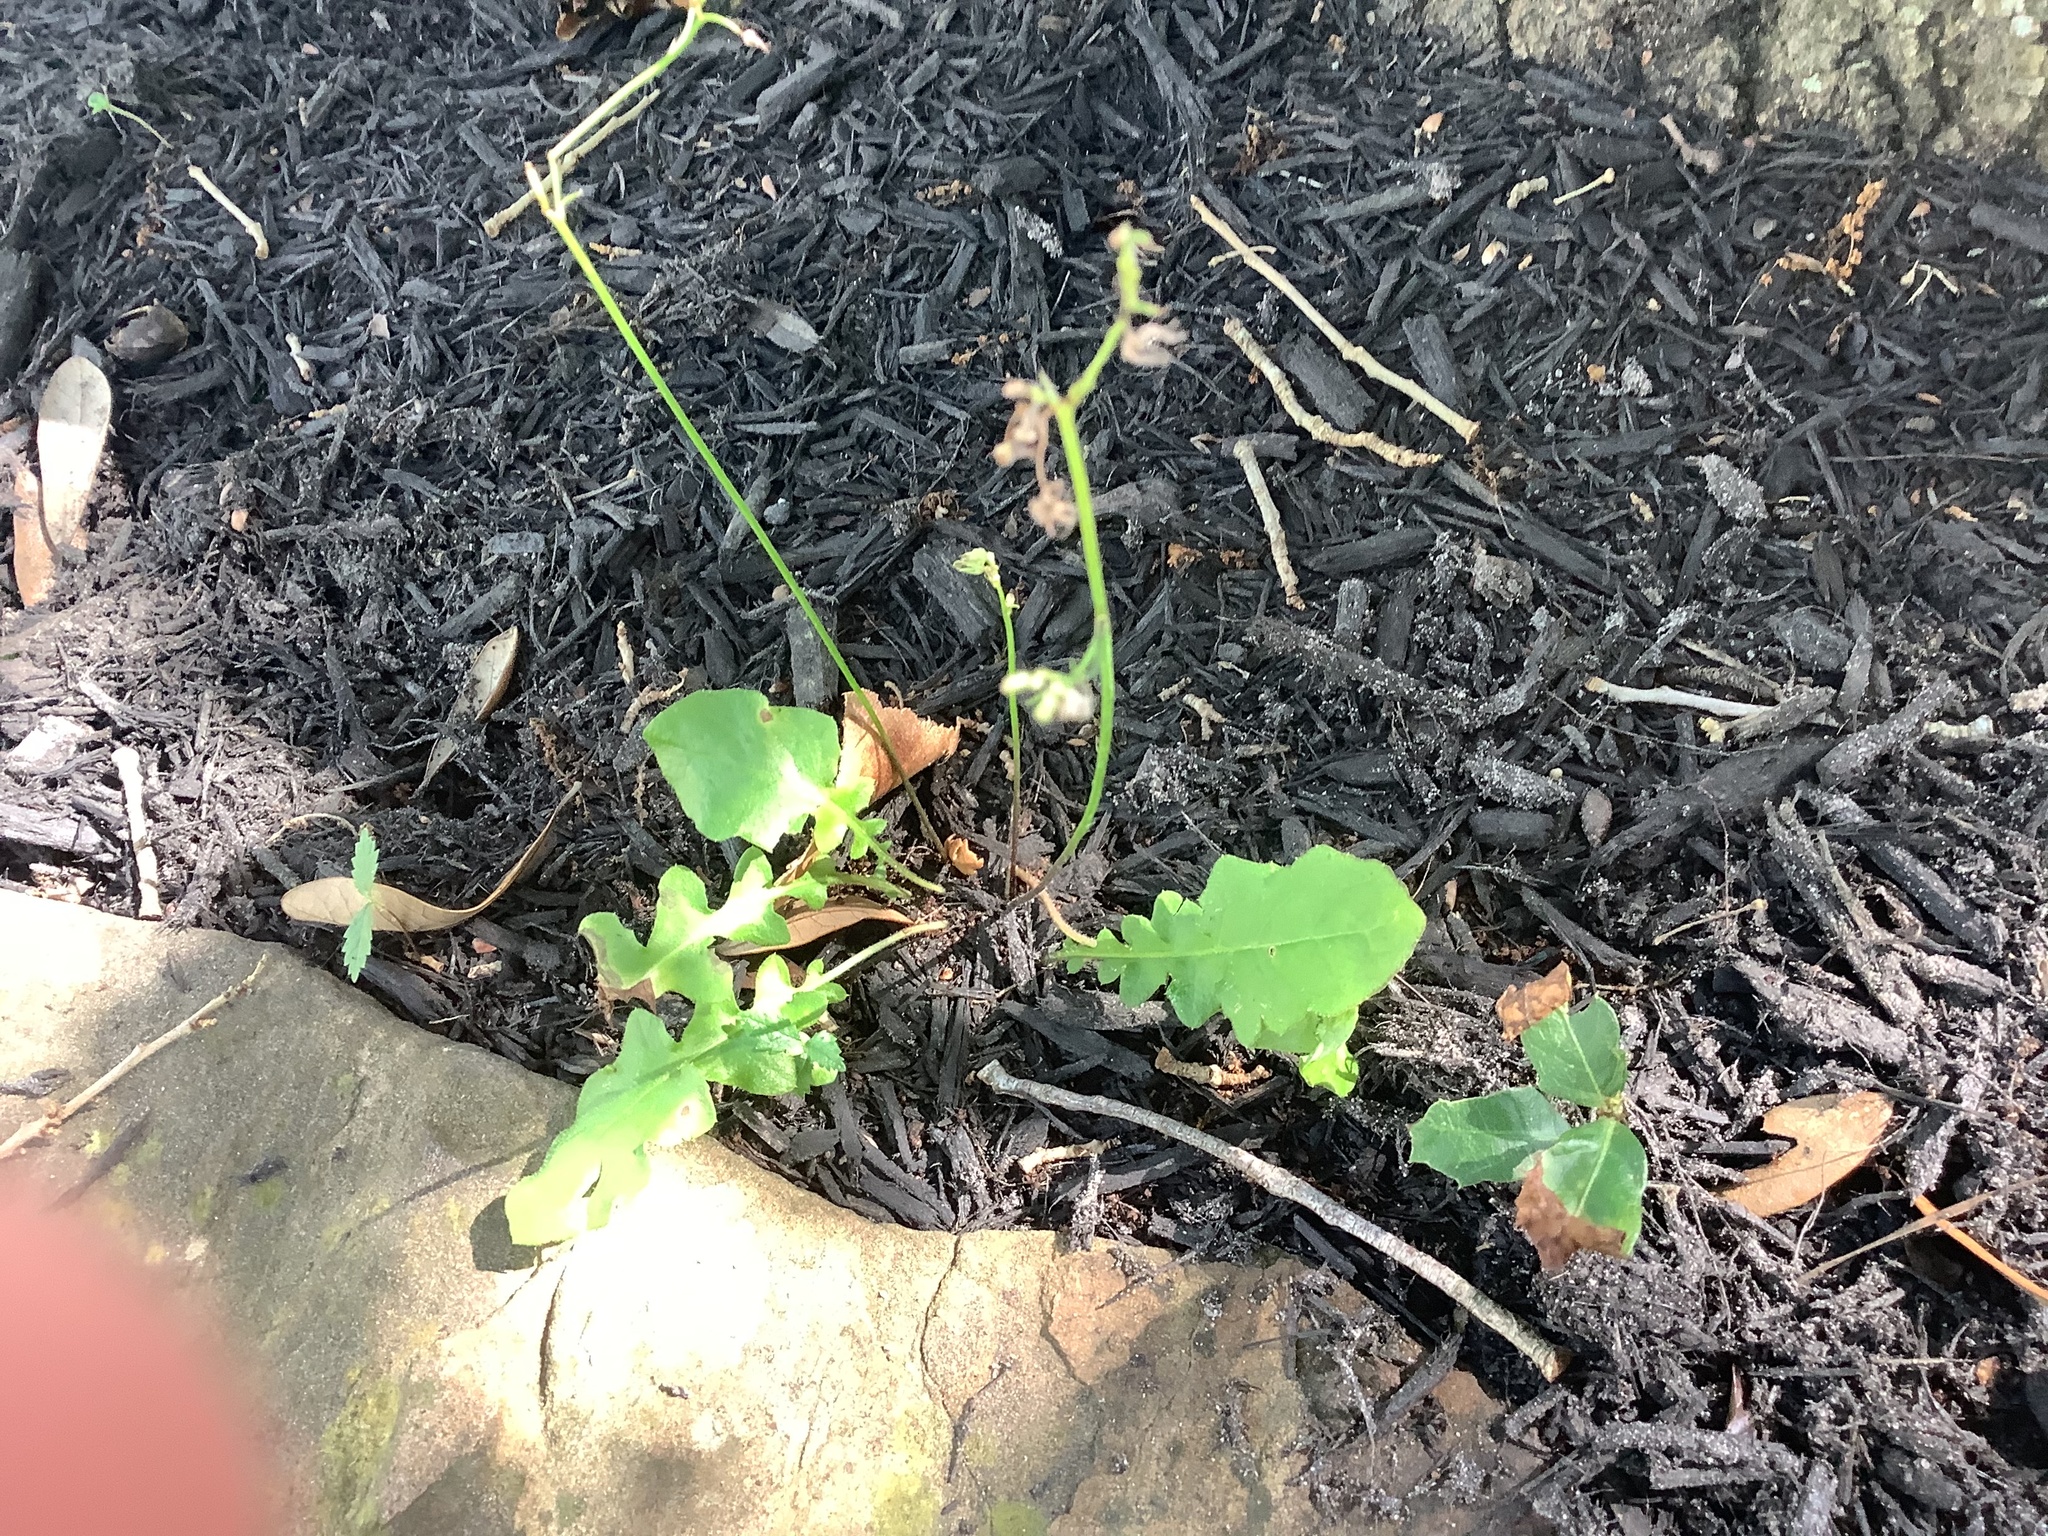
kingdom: Plantae
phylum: Tracheophyta
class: Magnoliopsida
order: Asterales
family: Asteraceae
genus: Youngia
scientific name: Youngia japonica
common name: Oriental false hawksbeard
